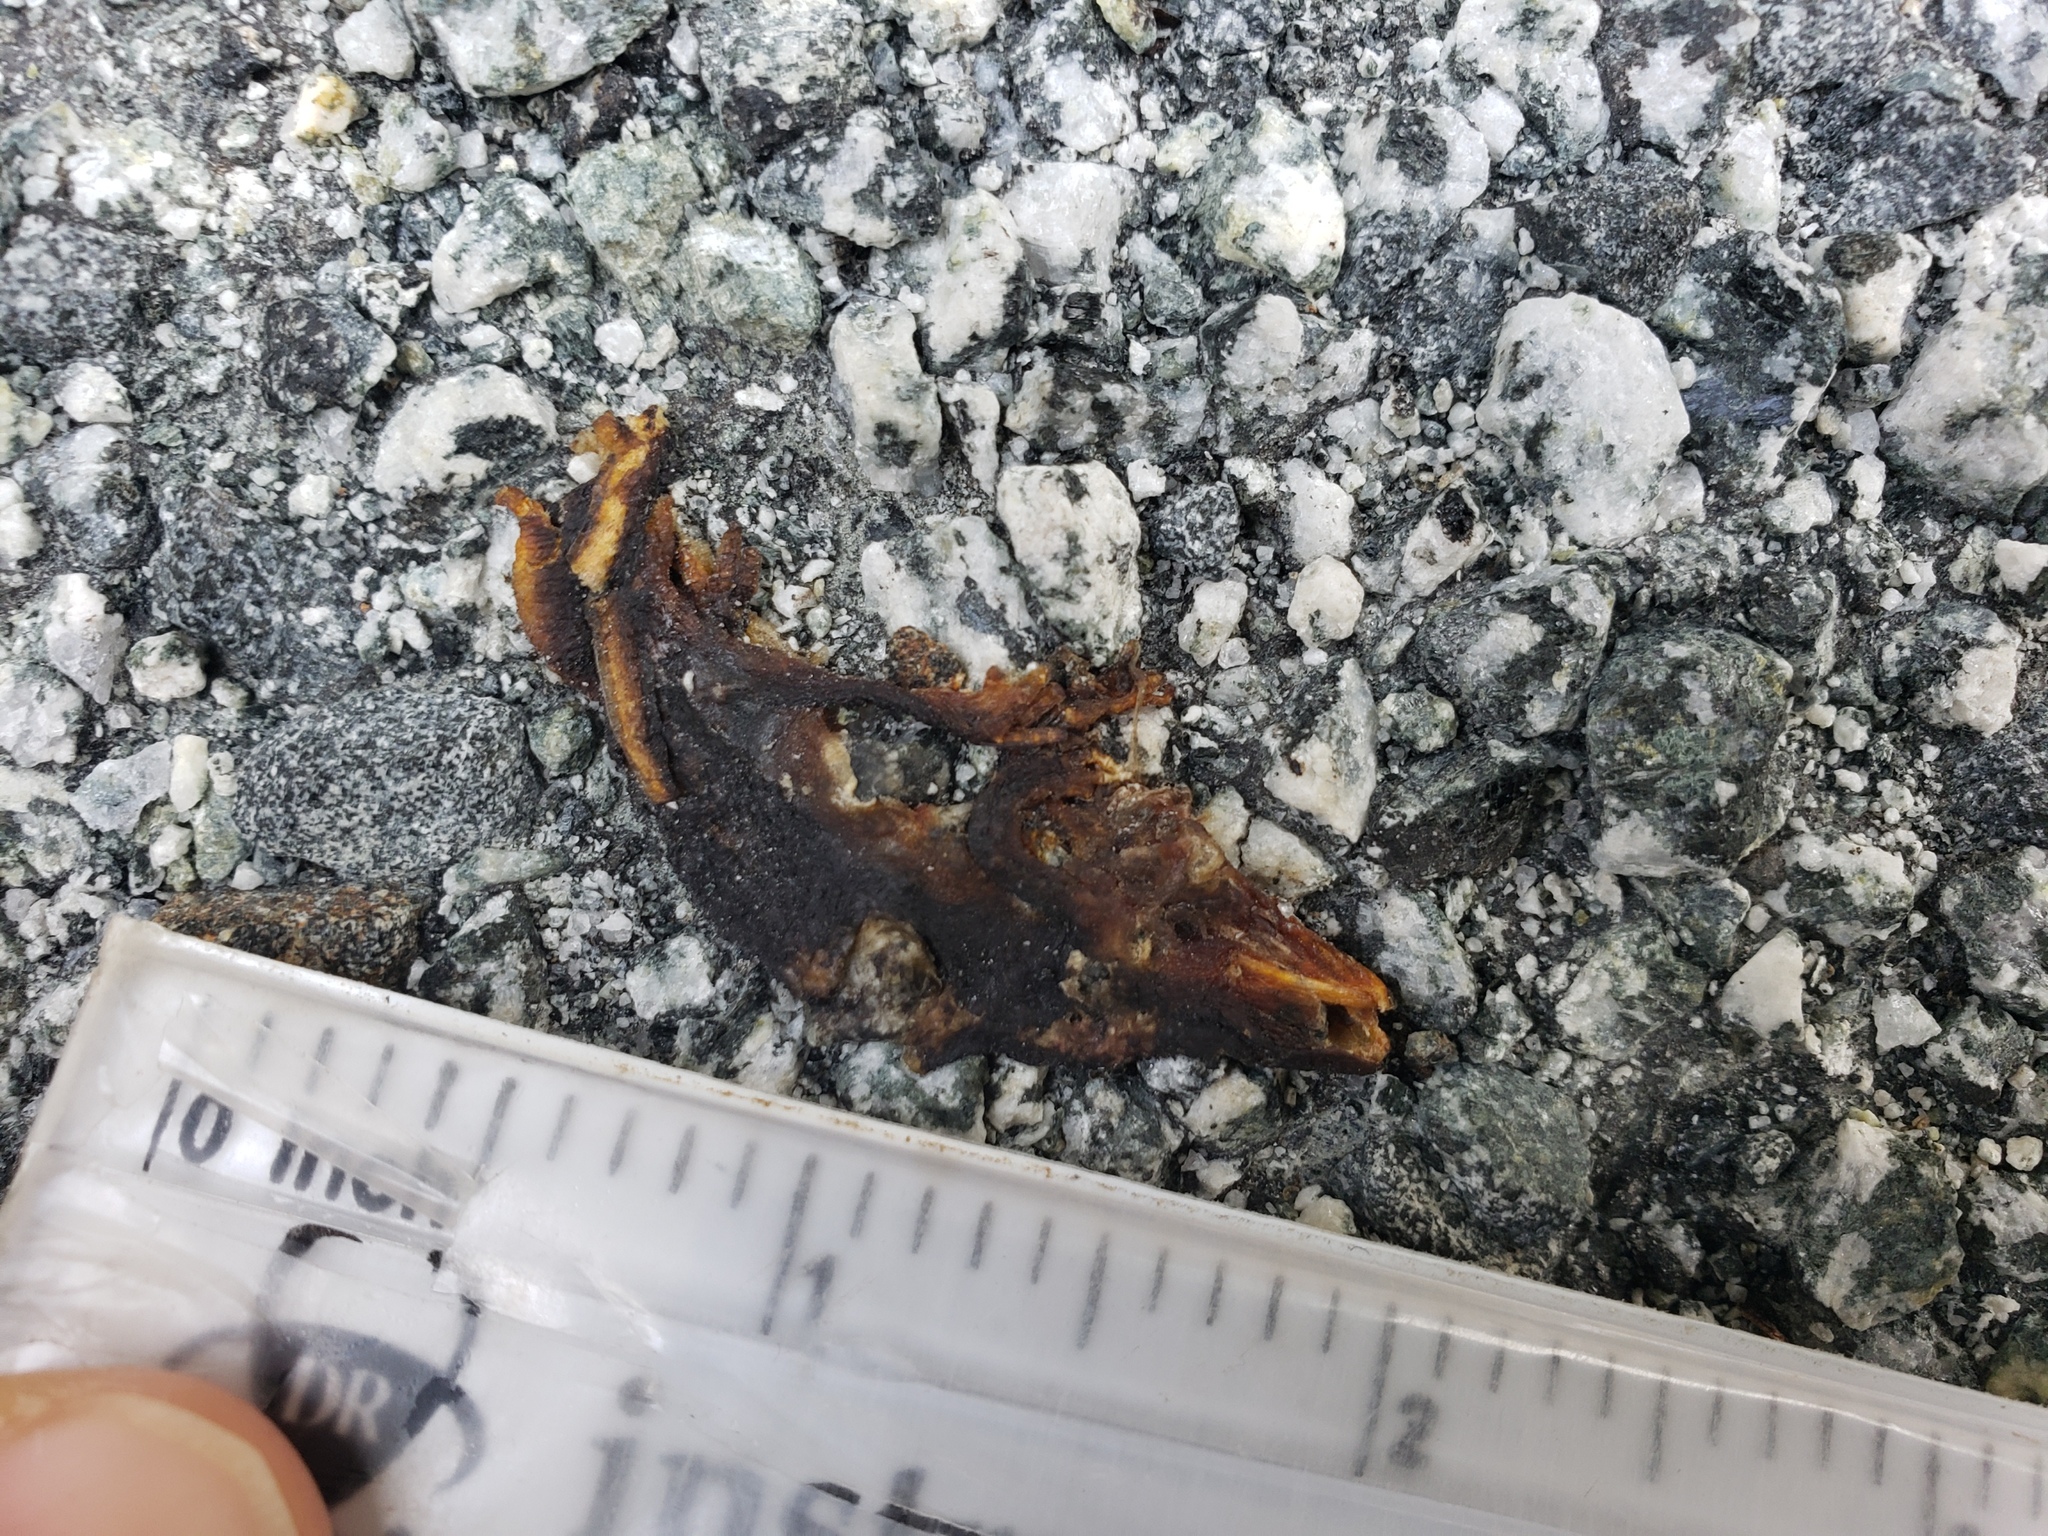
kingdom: Animalia
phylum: Chordata
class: Amphibia
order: Caudata
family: Salamandridae
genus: Taricha
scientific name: Taricha
